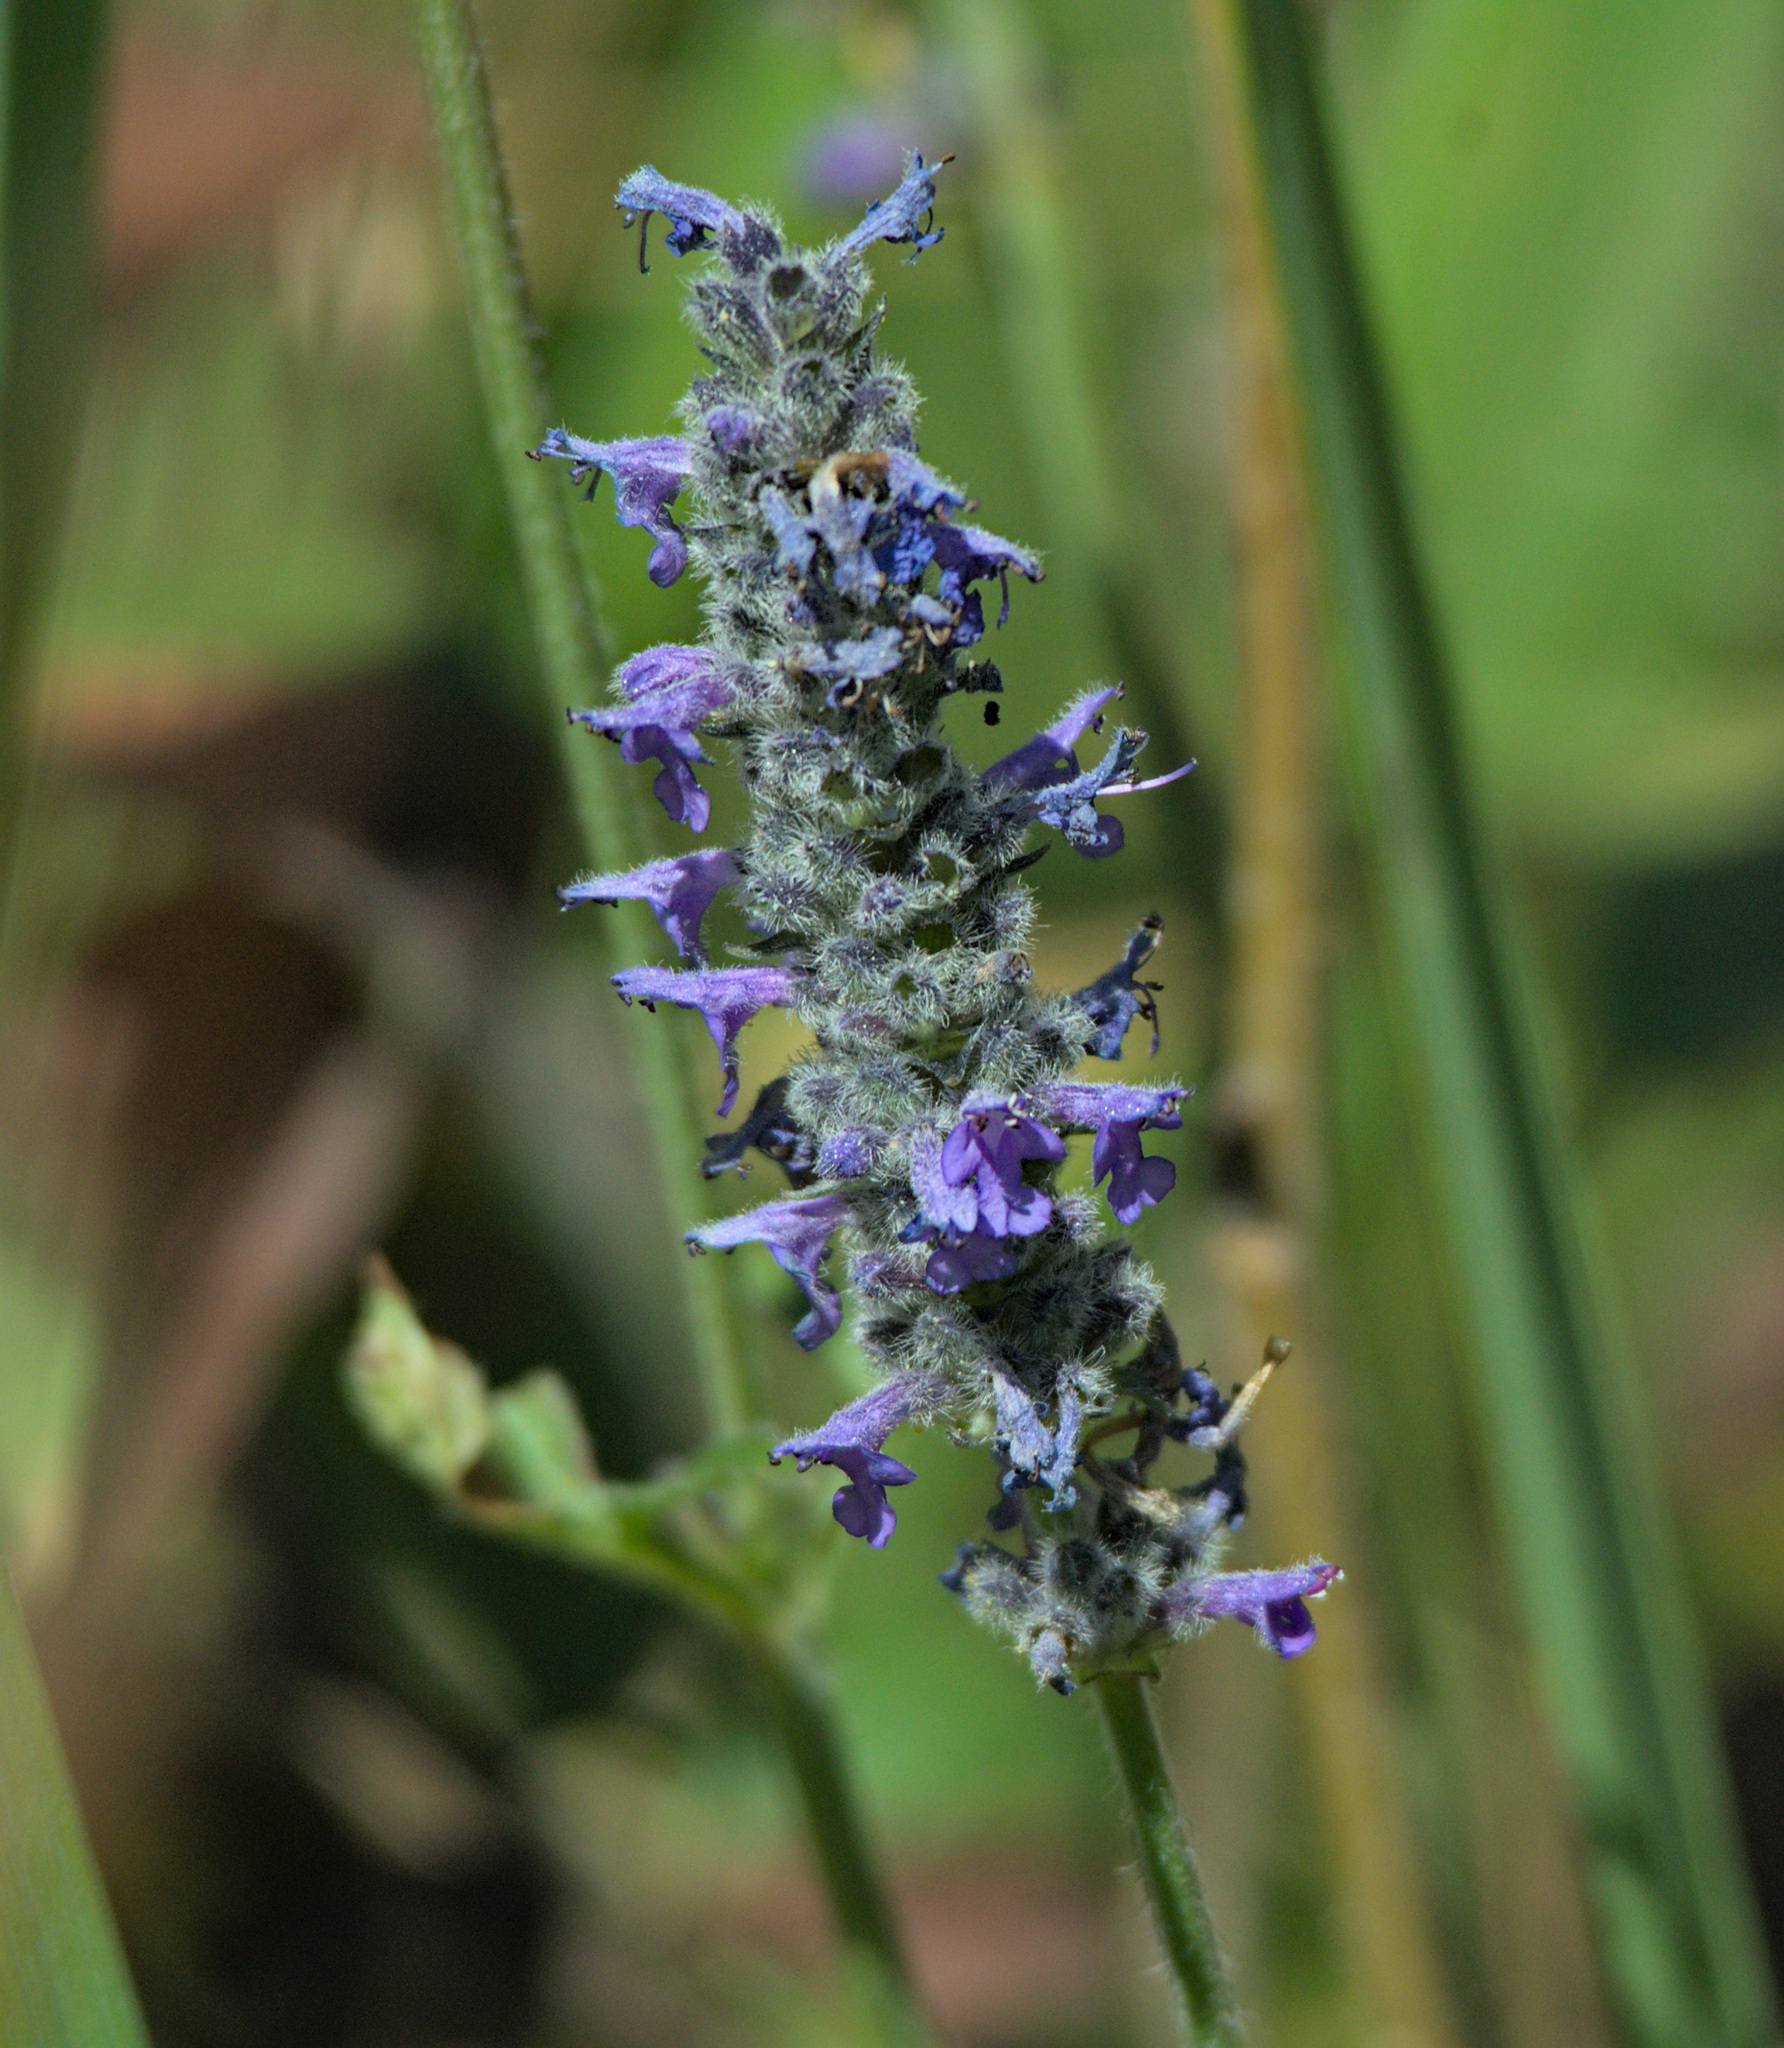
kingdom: Plantae
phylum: Tracheophyta
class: Magnoliopsida
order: Lamiales
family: Lamiaceae
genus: Nepeta
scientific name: Nepeta multifida
